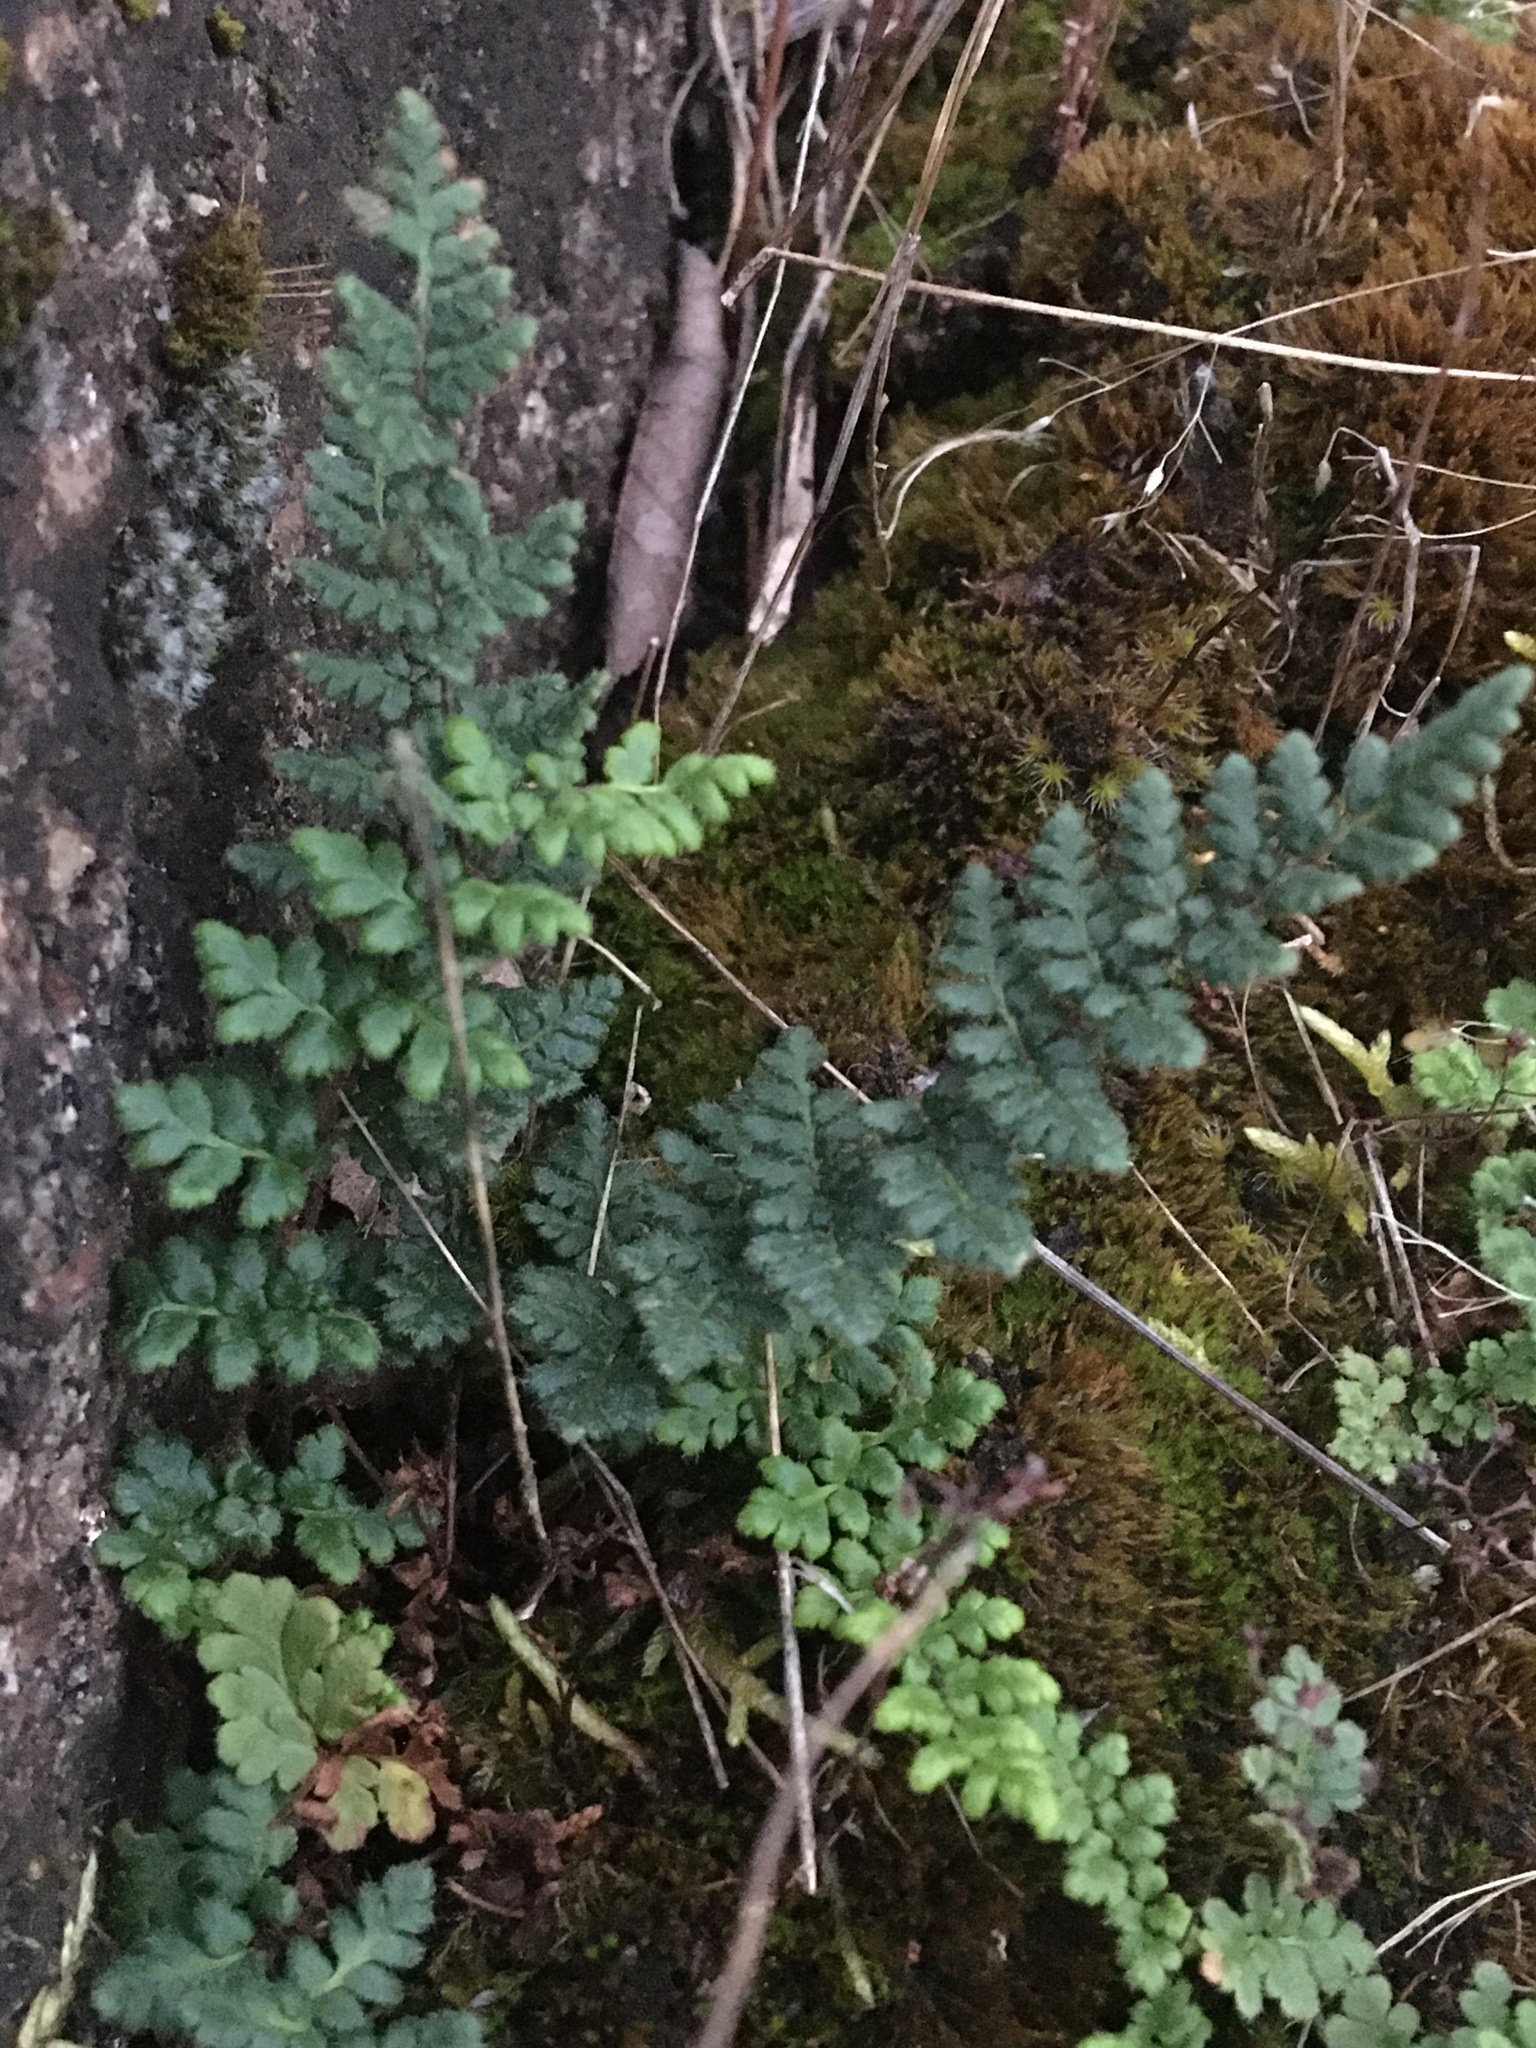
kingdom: Plantae
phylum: Tracheophyta
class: Polypodiopsida
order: Polypodiales
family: Pteridaceae
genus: Myriopteris
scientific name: Myriopteris lanosa
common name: Hairy lip fern
